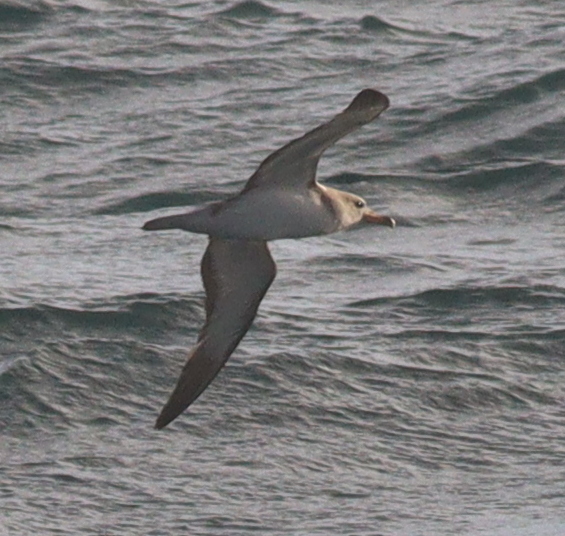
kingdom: Animalia
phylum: Chordata
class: Aves
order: Procellariiformes
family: Procellariidae
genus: Calonectris
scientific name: Calonectris diomedea
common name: Cory's shearwater
